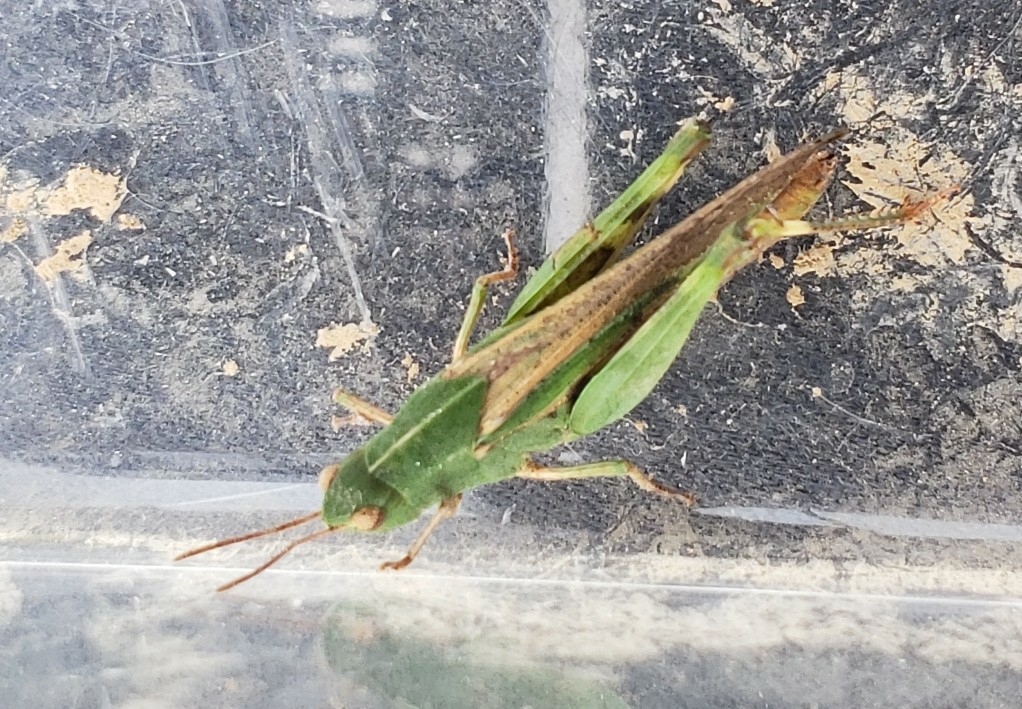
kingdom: Animalia
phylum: Arthropoda
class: Insecta
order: Orthoptera
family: Acrididae
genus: Chortophaga
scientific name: Chortophaga viridifasciata
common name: Green-striped grasshopper
